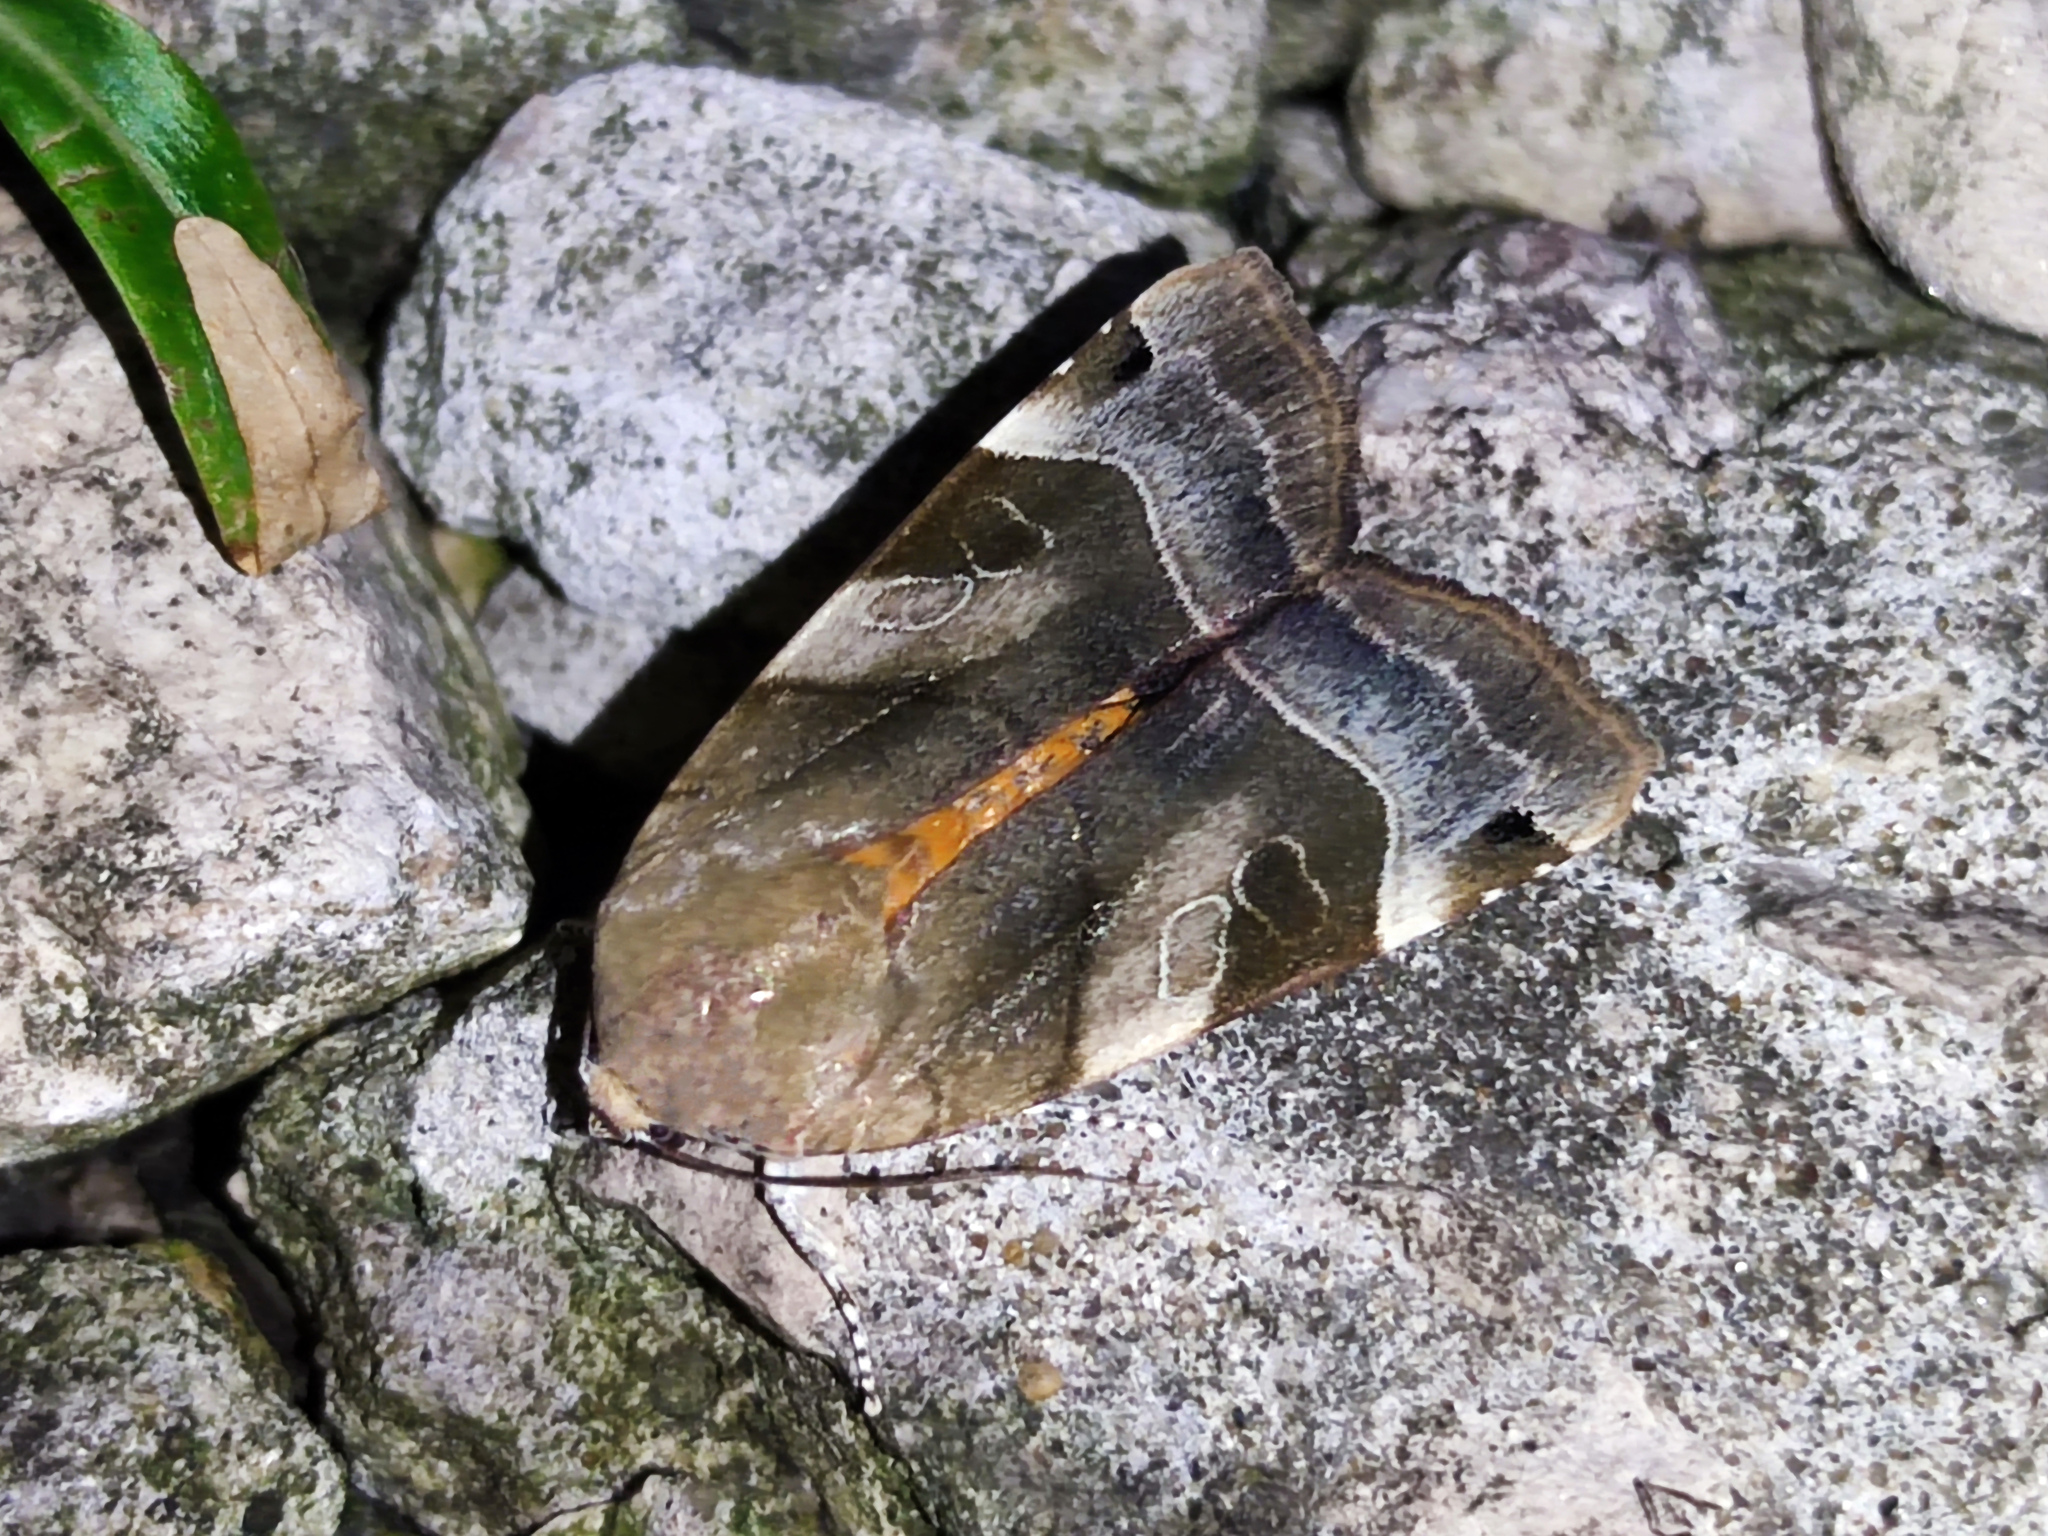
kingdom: Animalia
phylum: Arthropoda
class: Insecta
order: Lepidoptera
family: Noctuidae
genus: Noctua
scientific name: Noctua fimbriata
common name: Broad-bordered yellow underwing
